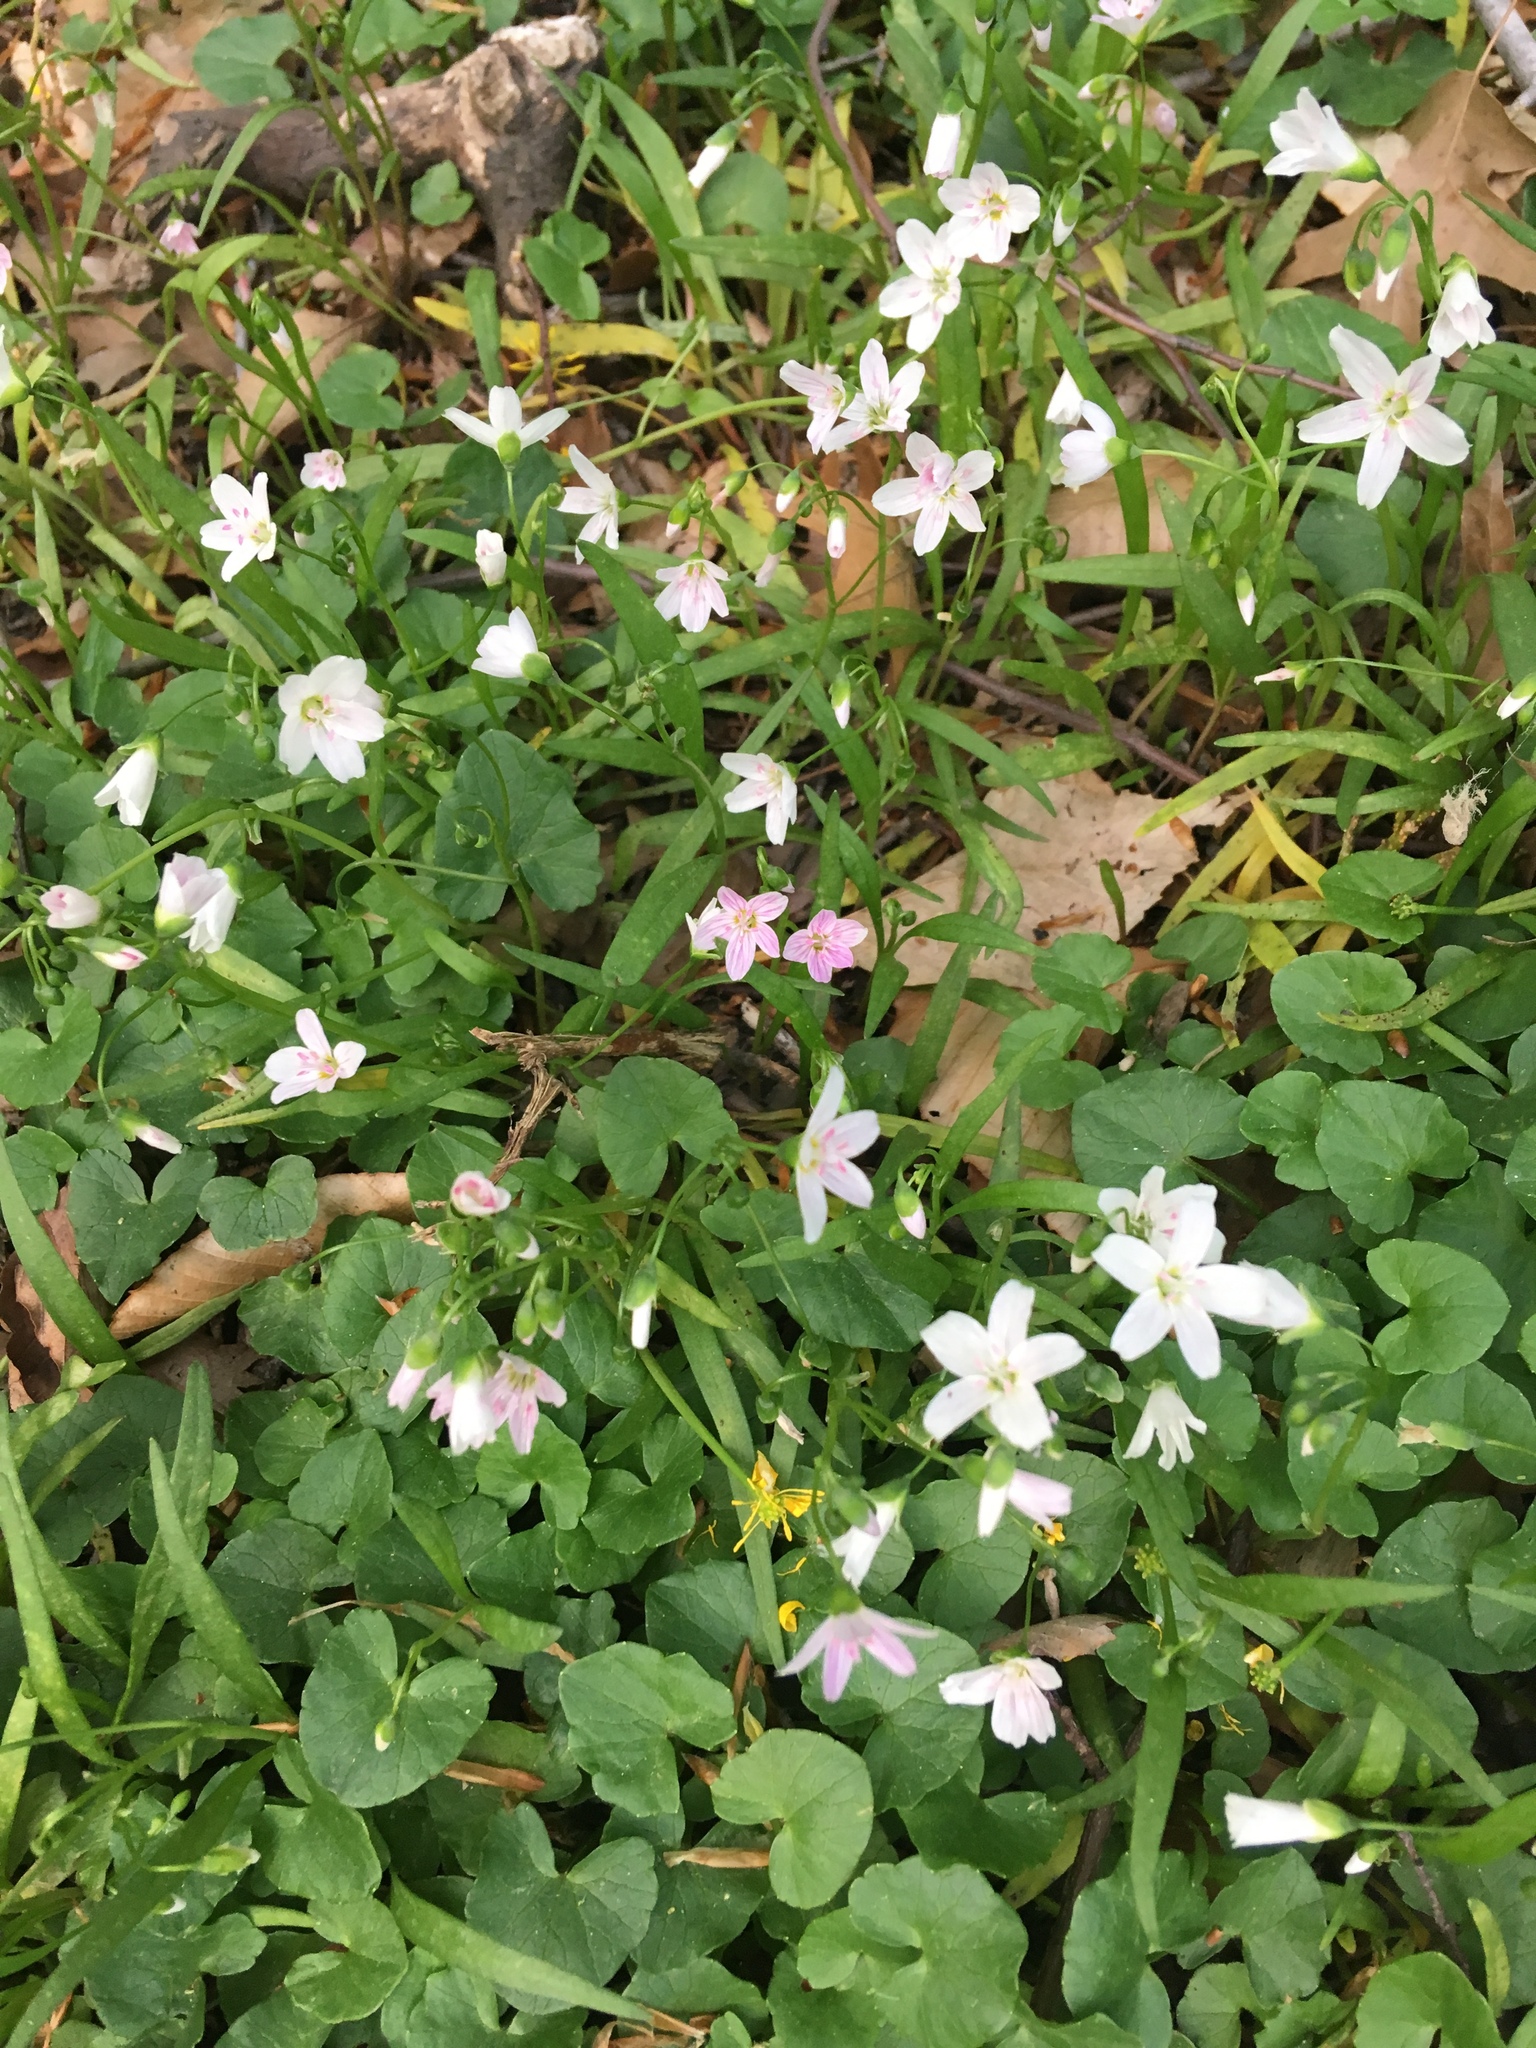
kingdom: Plantae
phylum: Tracheophyta
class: Magnoliopsida
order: Caryophyllales
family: Montiaceae
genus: Claytonia
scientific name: Claytonia virginica
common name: Virginia springbeauty
